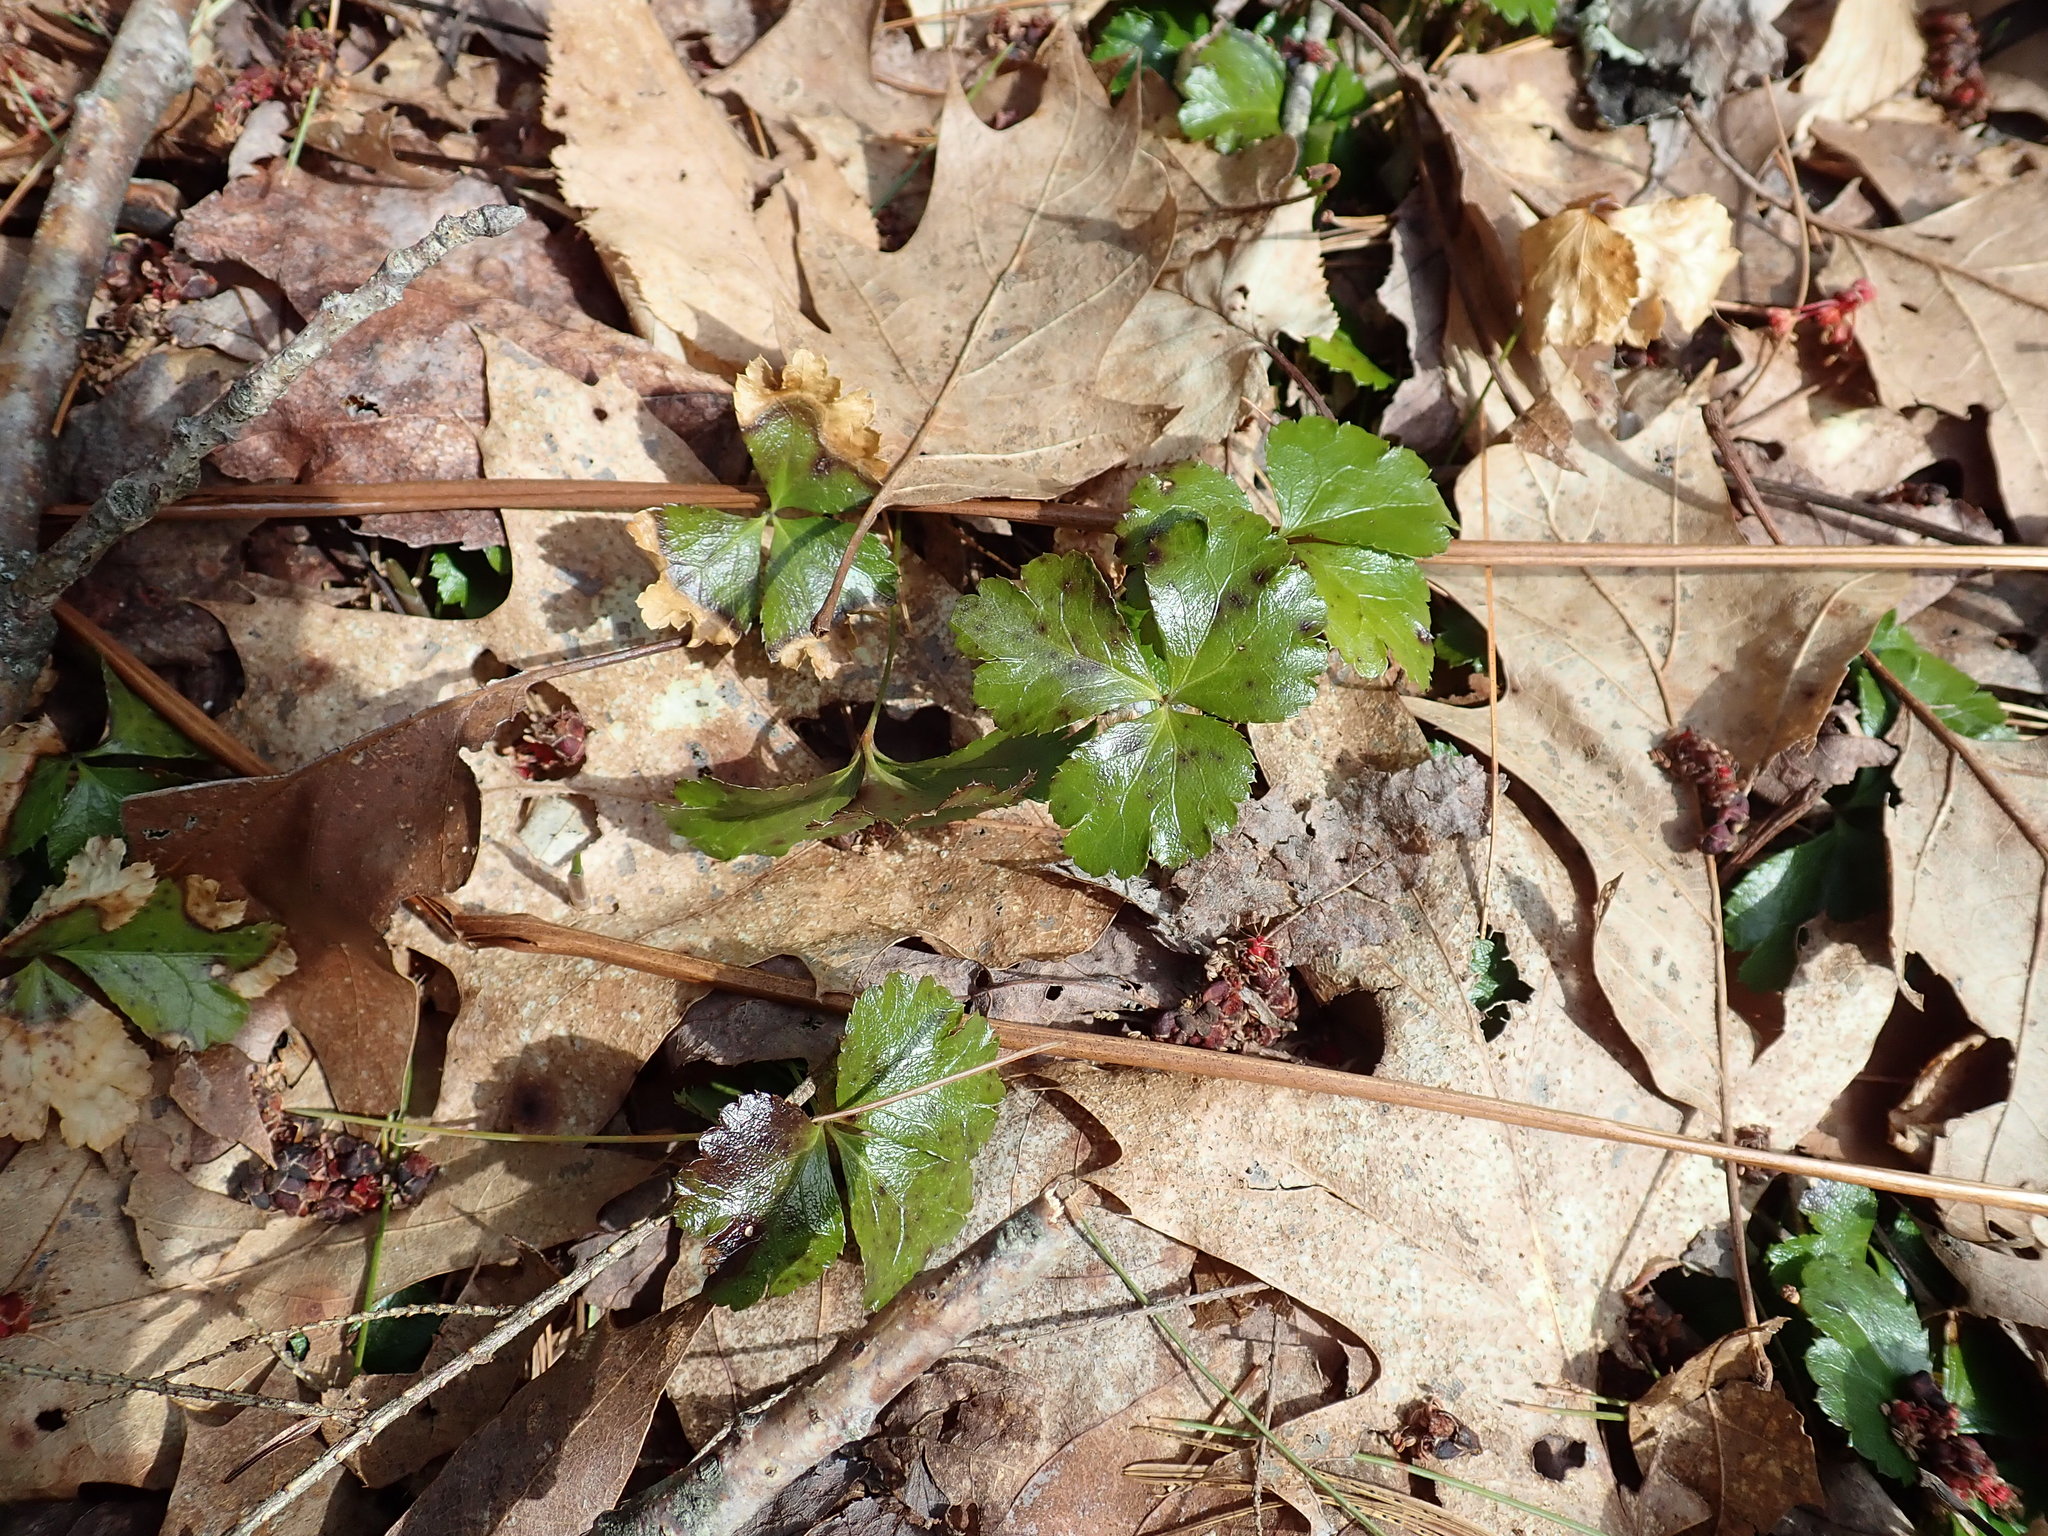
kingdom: Plantae
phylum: Tracheophyta
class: Magnoliopsida
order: Ranunculales
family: Ranunculaceae
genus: Coptis
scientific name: Coptis trifolia
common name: Canker-root
